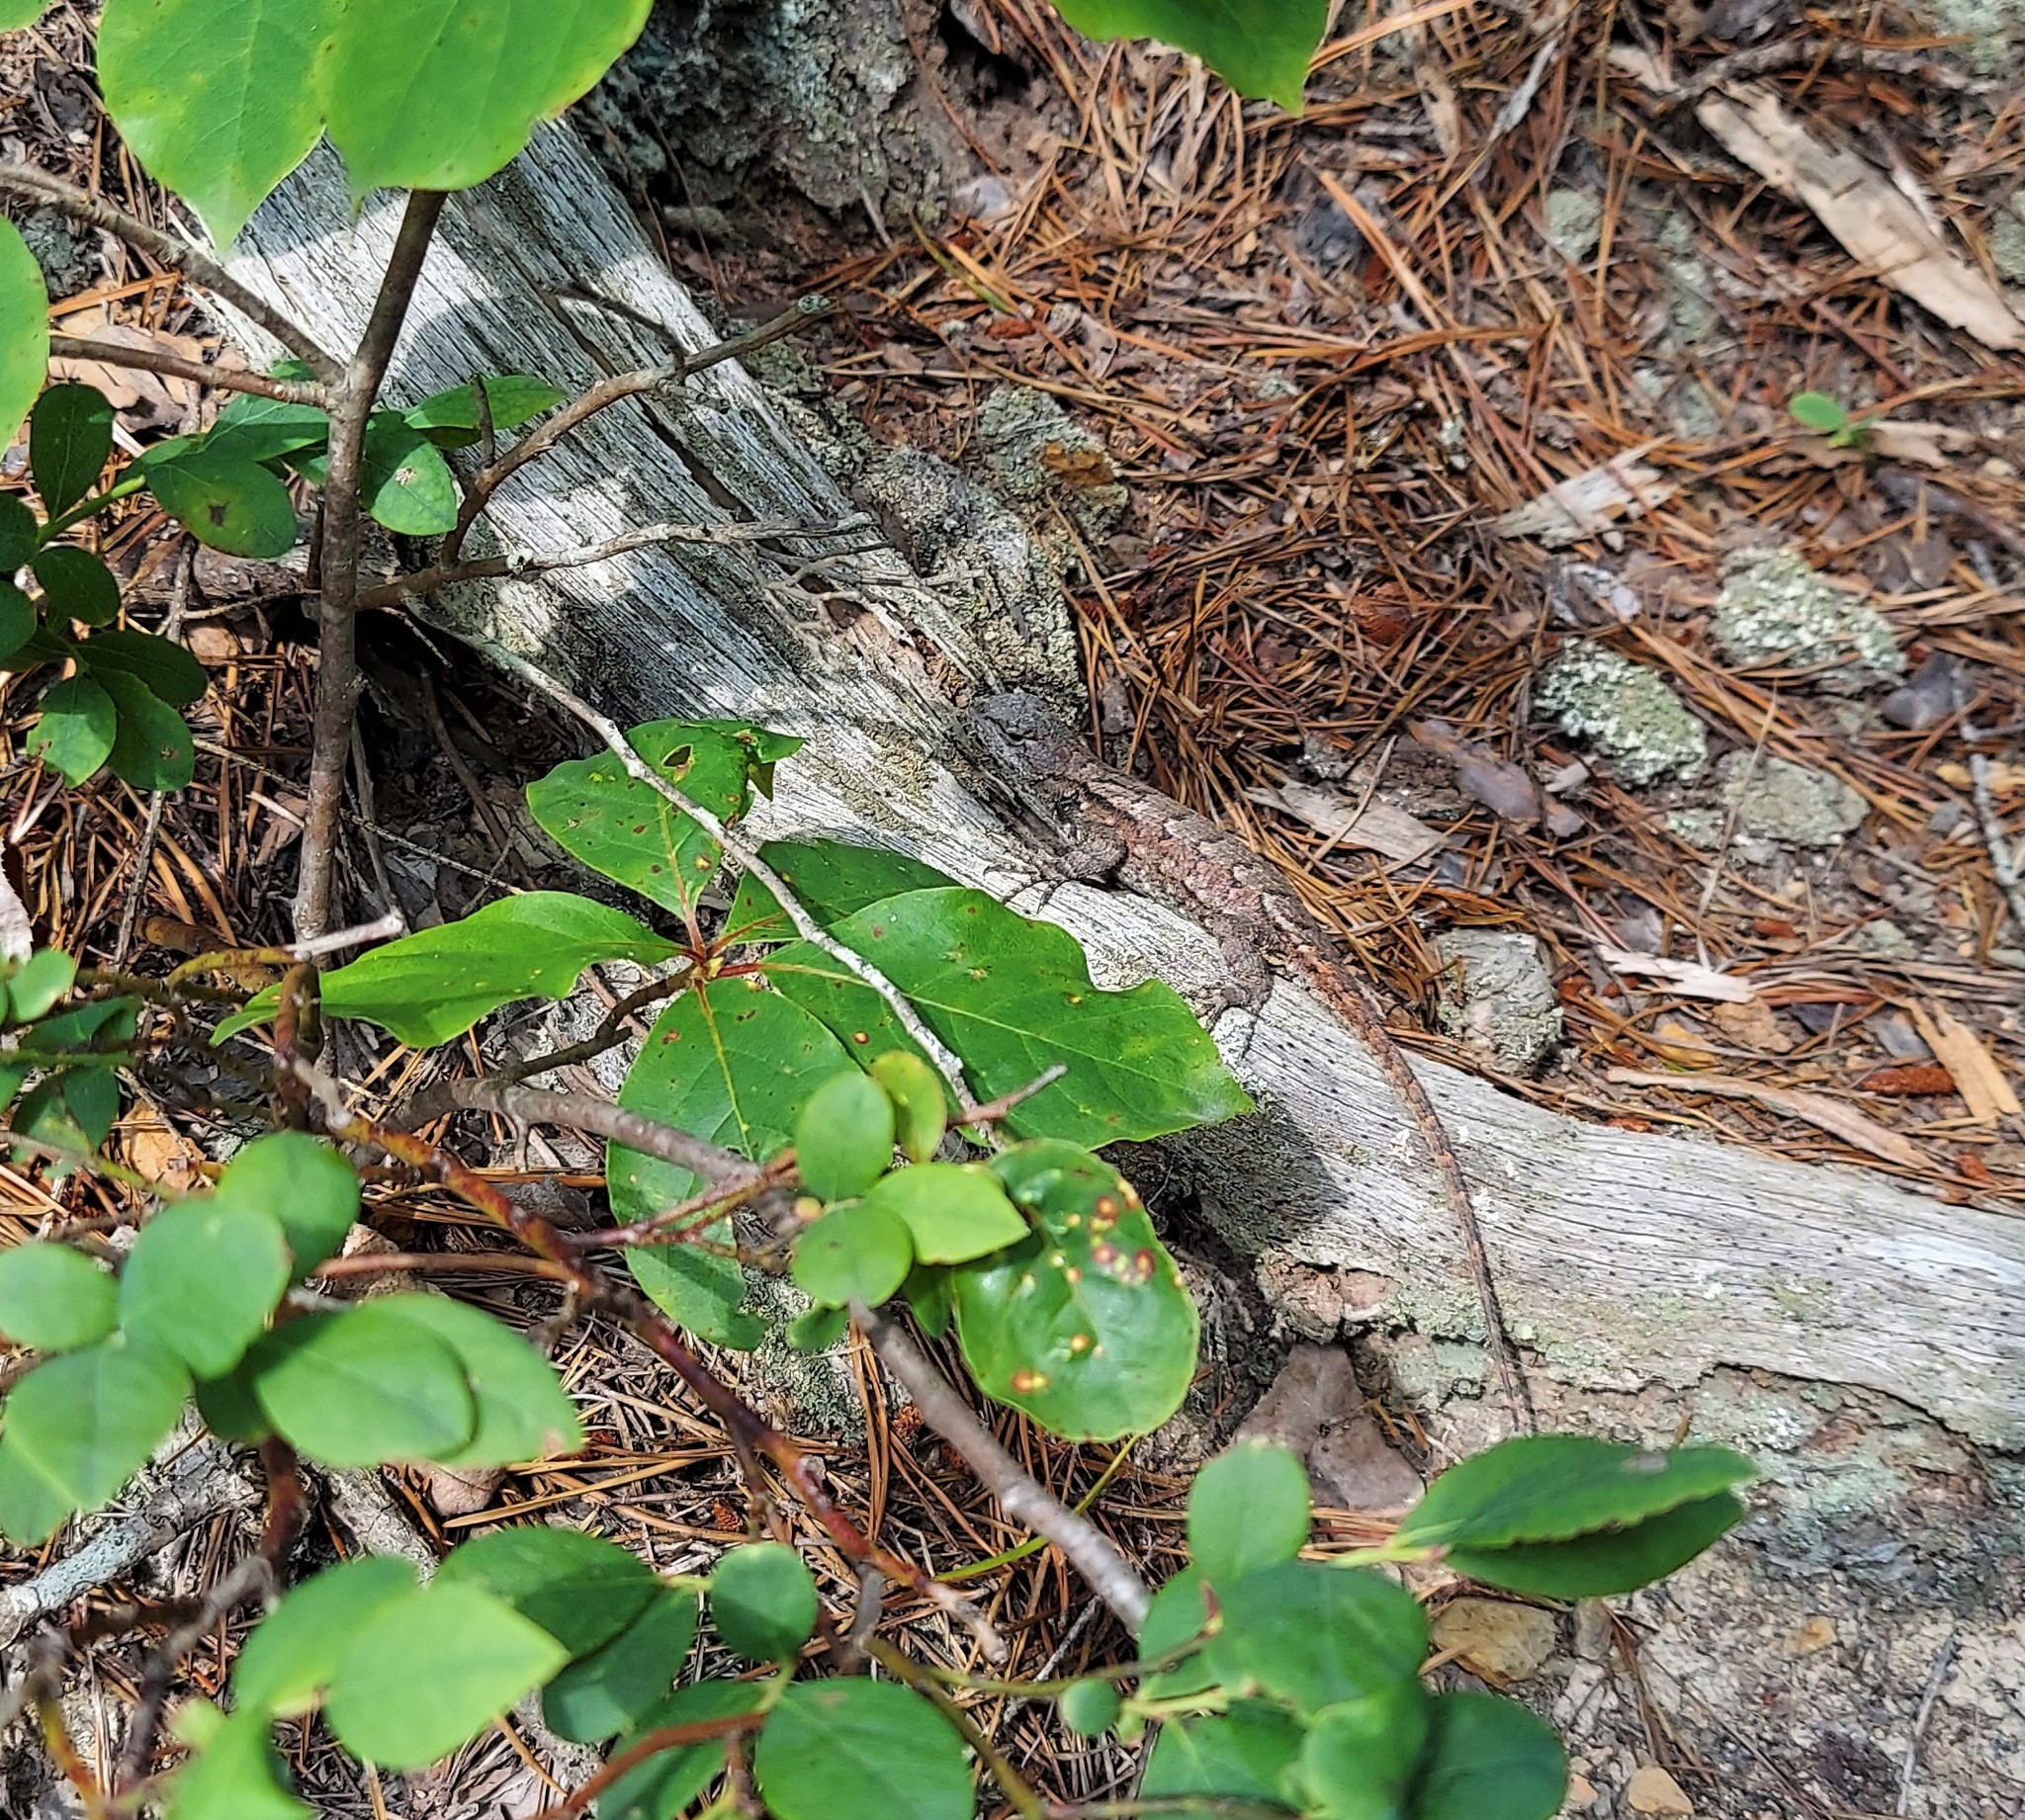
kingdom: Animalia
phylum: Chordata
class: Squamata
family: Phrynosomatidae
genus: Sceloporus
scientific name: Sceloporus undulatus
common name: Eastern fence lizard
